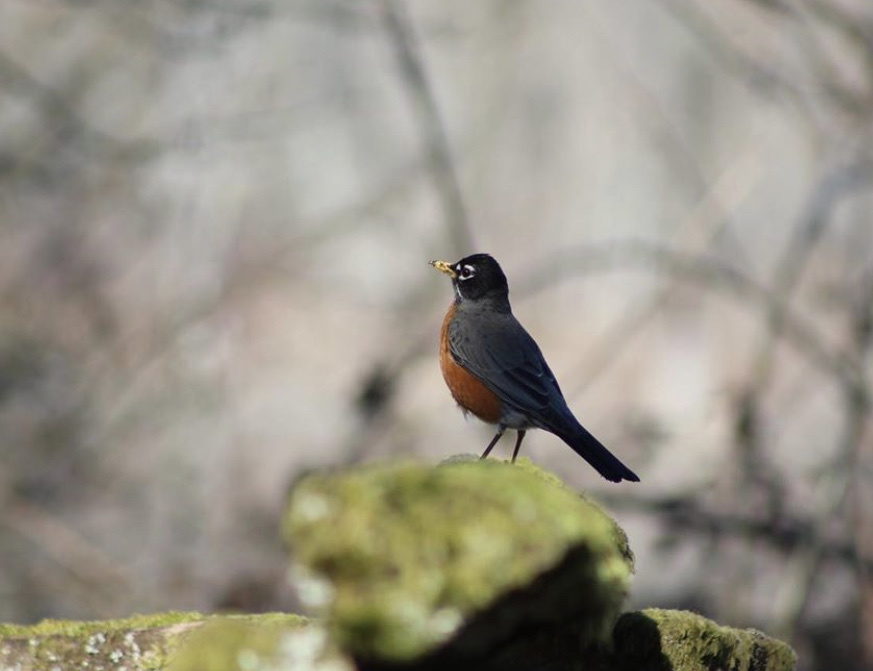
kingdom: Animalia
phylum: Chordata
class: Aves
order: Passeriformes
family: Turdidae
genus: Turdus
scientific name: Turdus migratorius
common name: American robin
